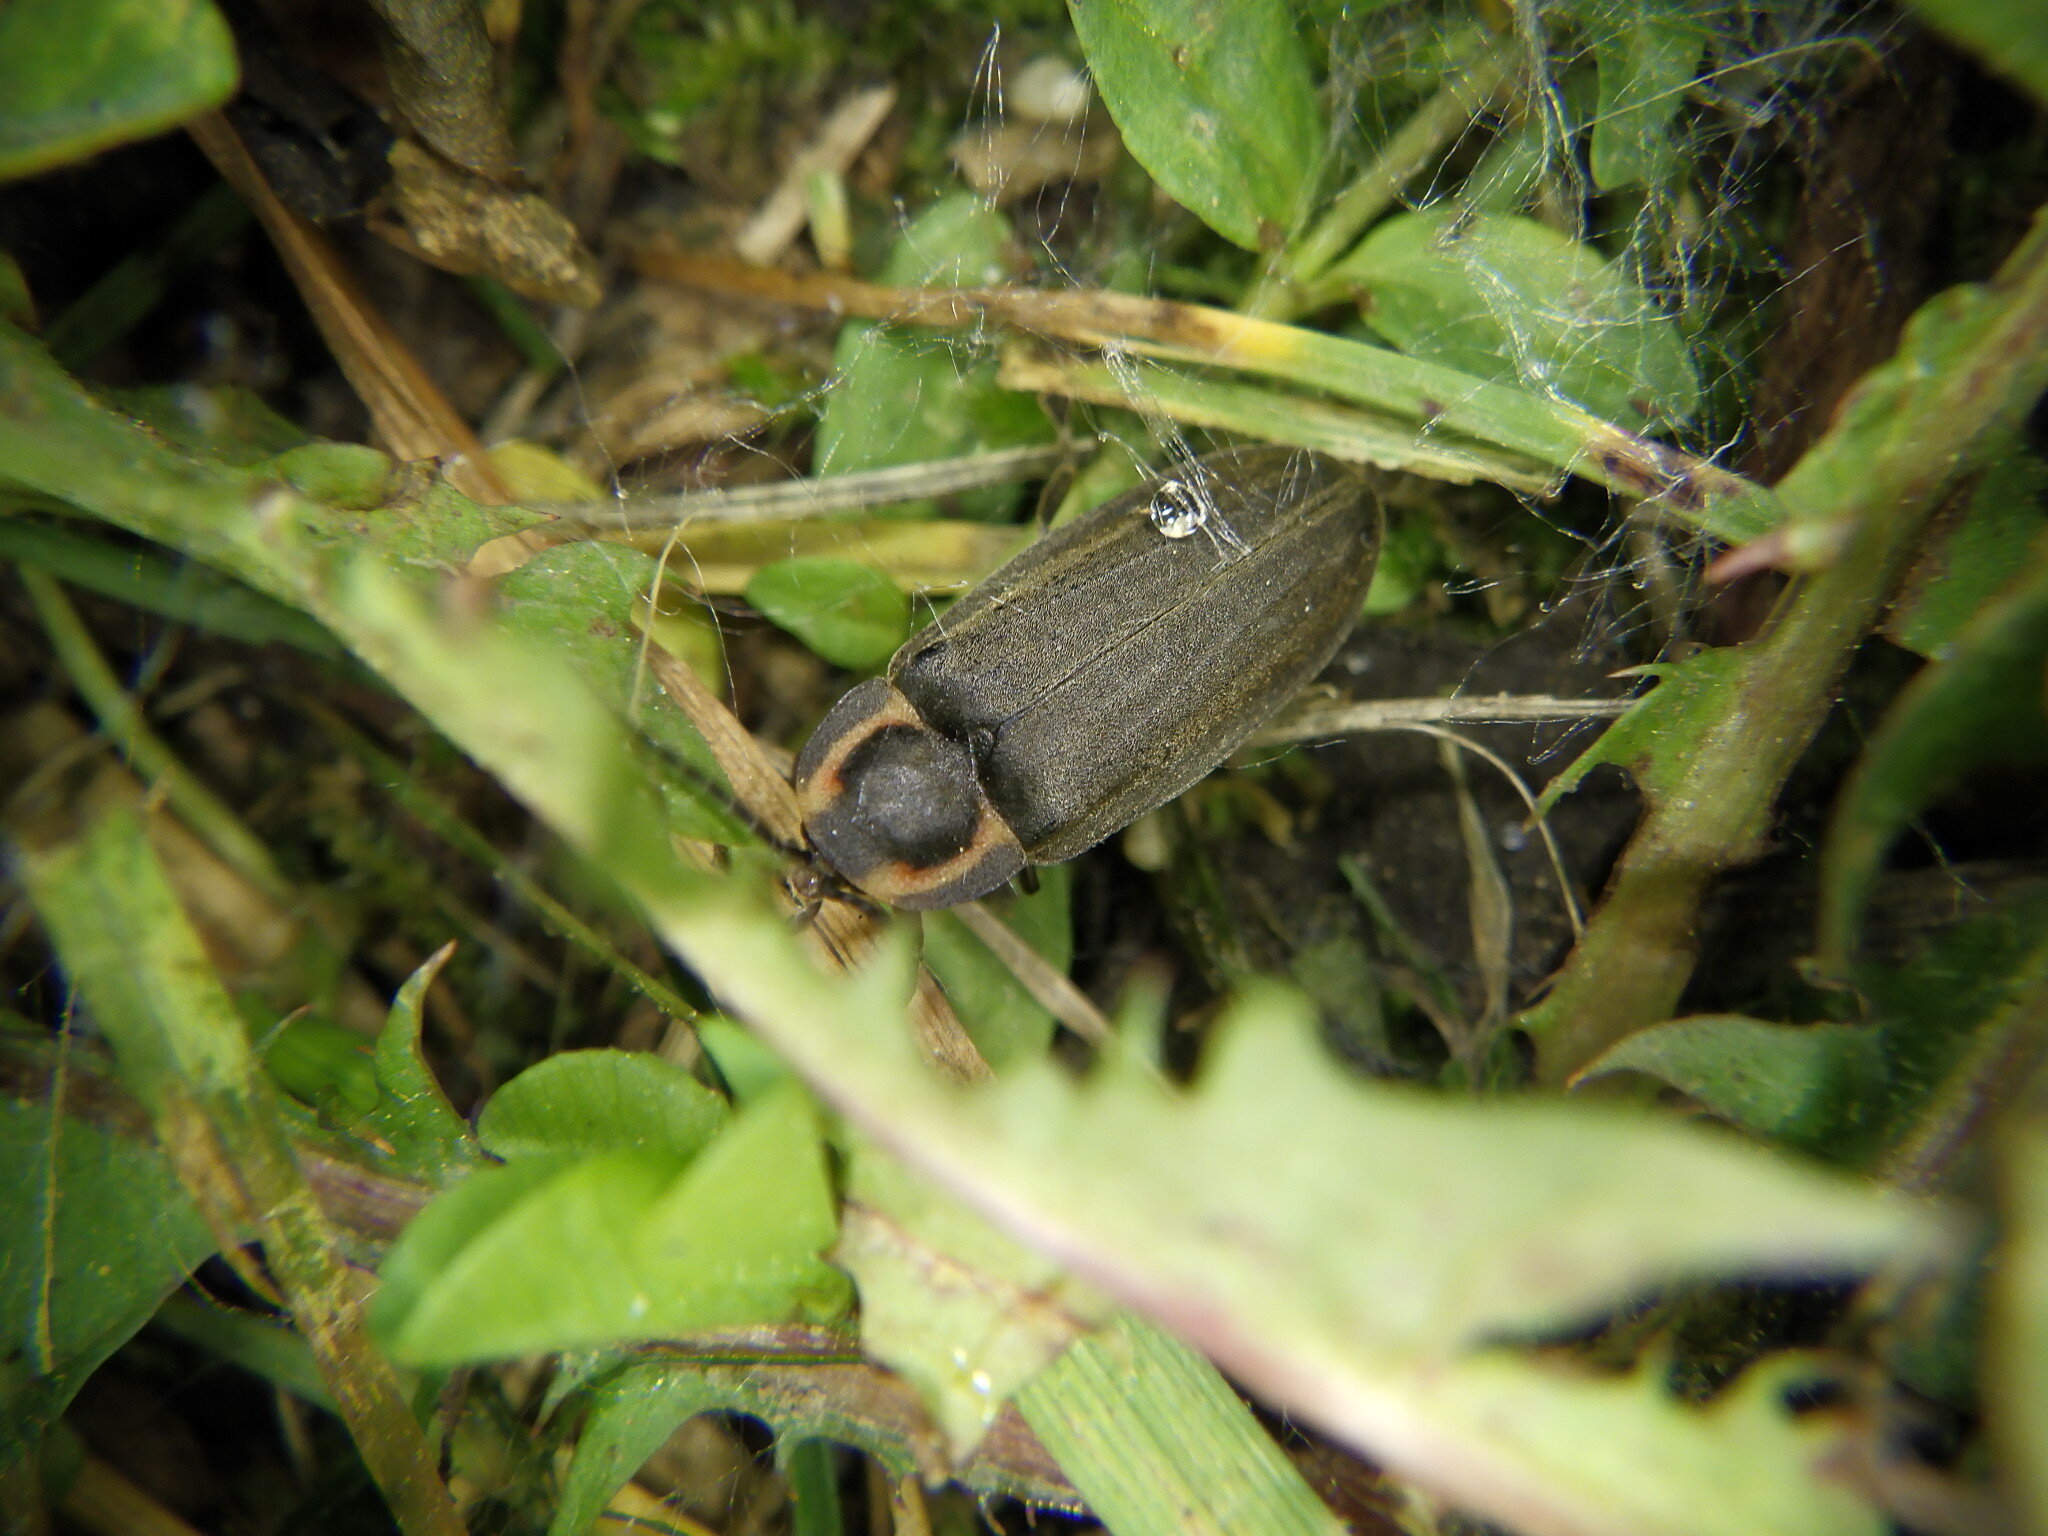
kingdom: Animalia
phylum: Arthropoda
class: Insecta
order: Coleoptera
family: Lampyridae
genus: Photinus
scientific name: Photinus corrusca
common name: Winter firefly
